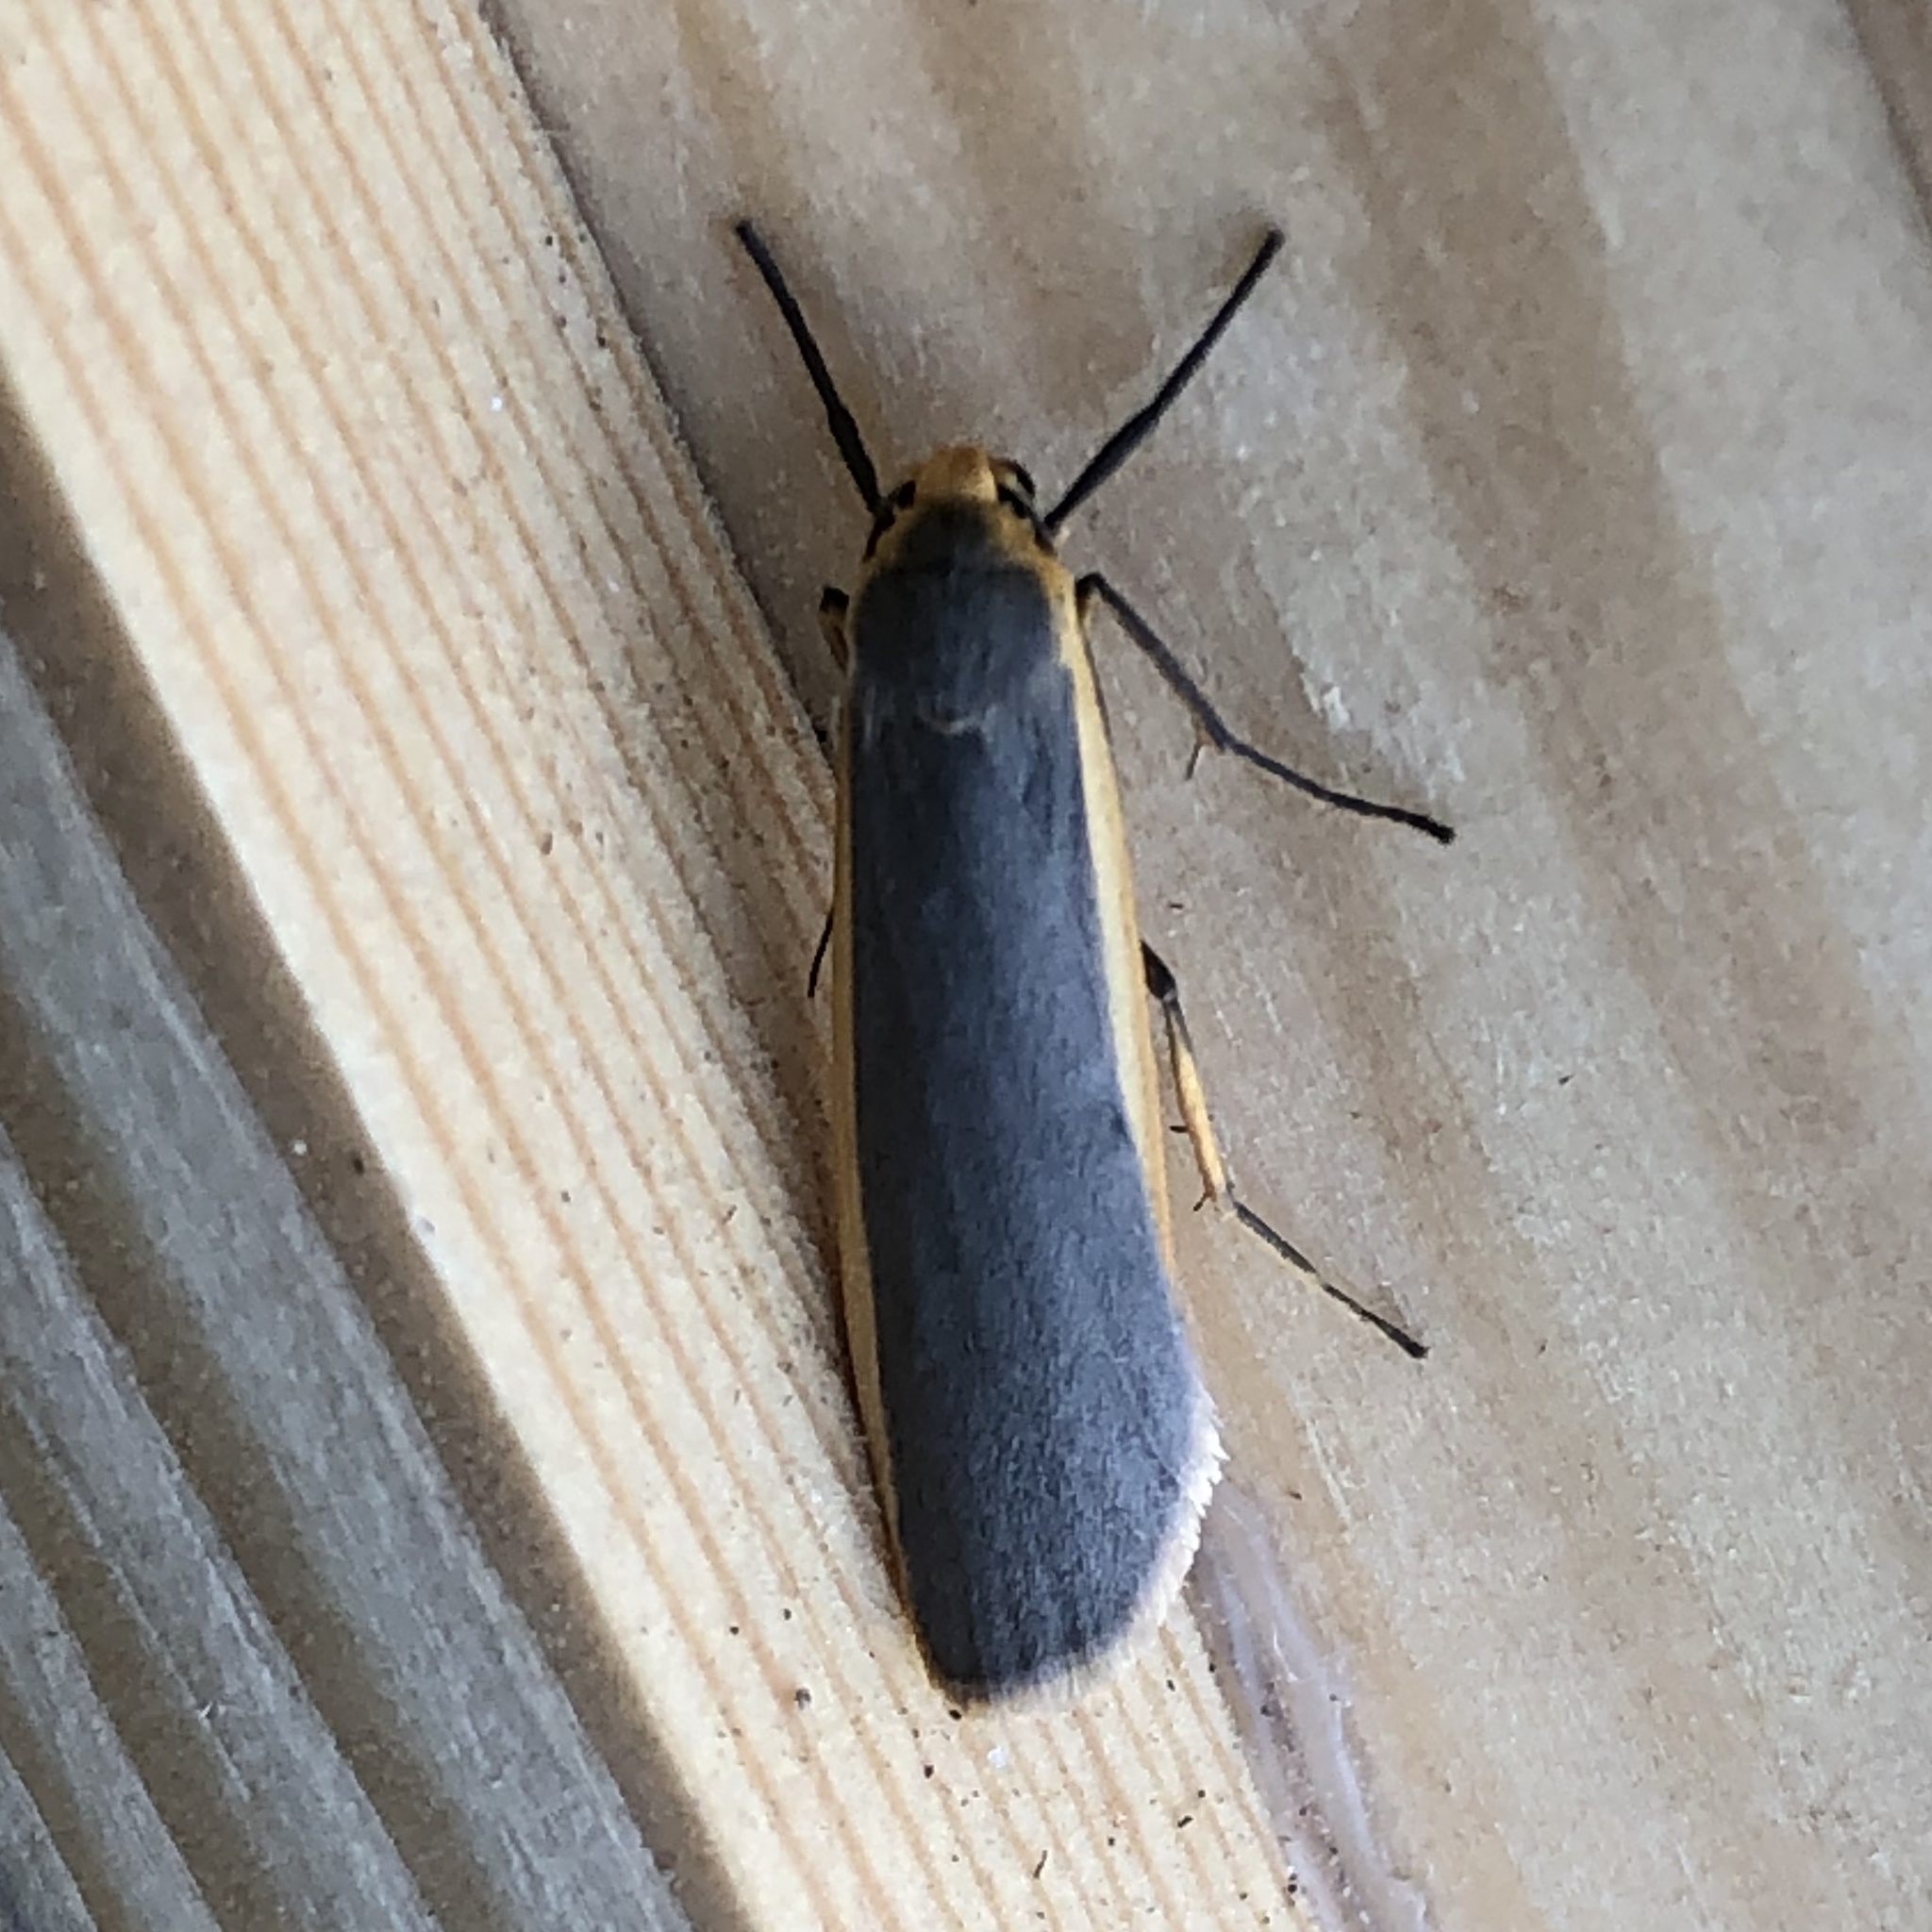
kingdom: Animalia
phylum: Arthropoda
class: Insecta
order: Lepidoptera
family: Erebidae
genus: Nyea
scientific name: Nyea lurideola
